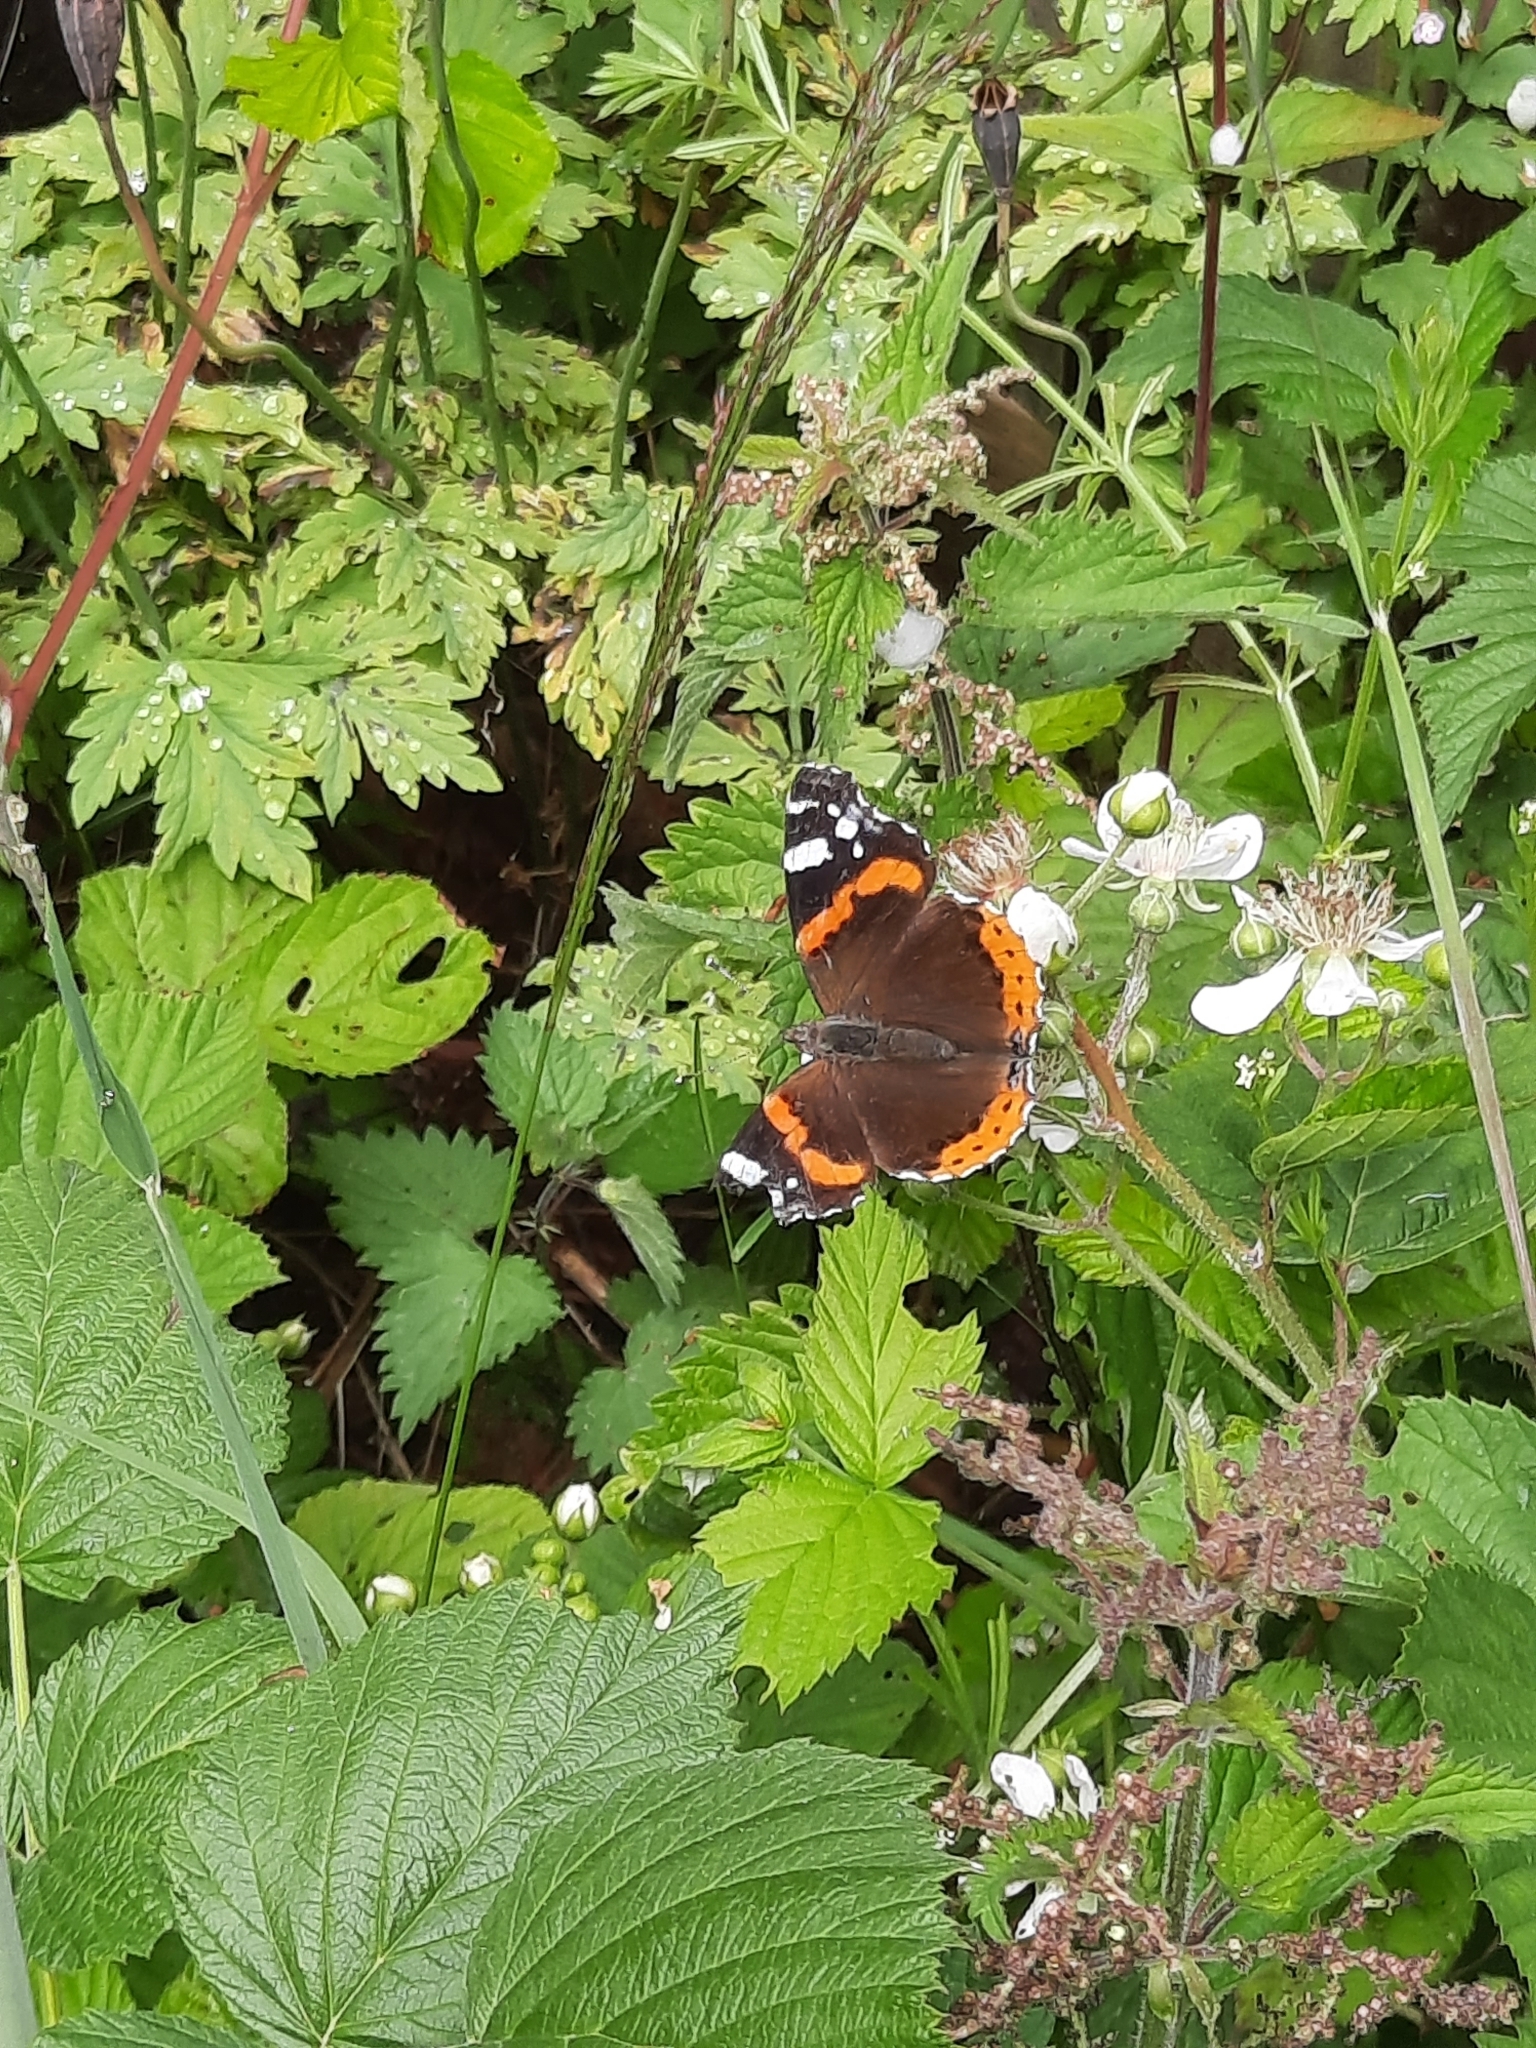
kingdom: Animalia
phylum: Arthropoda
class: Insecta
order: Lepidoptera
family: Nymphalidae
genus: Vanessa
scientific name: Vanessa atalanta
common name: Red admiral
